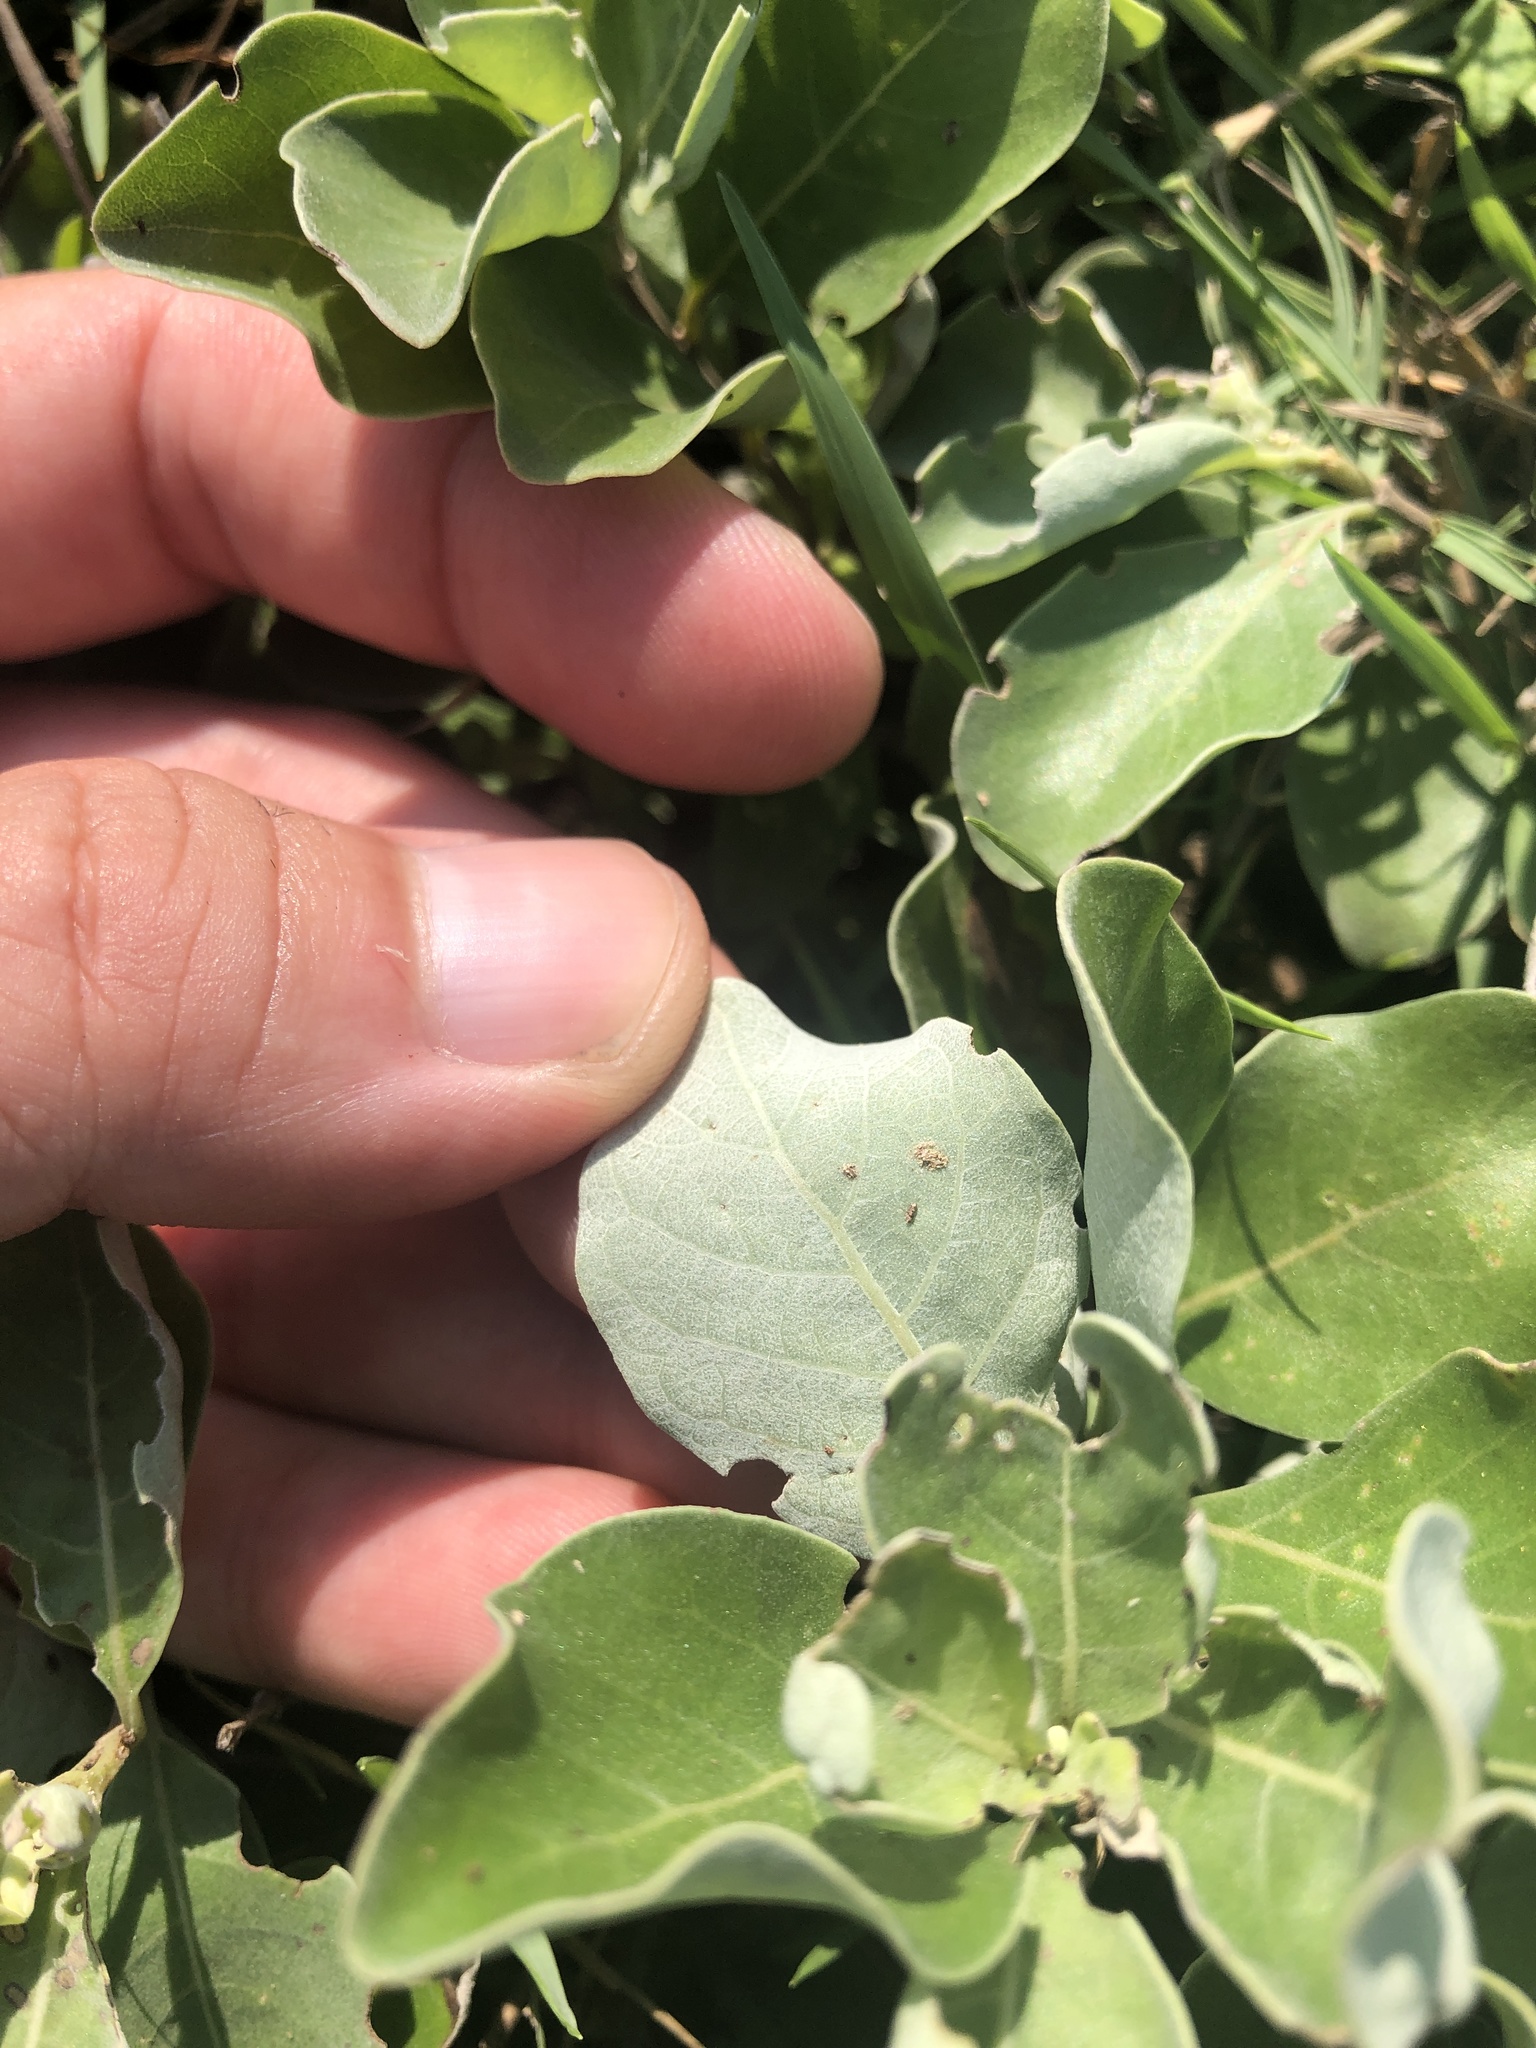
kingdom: Plantae
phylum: Tracheophyta
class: Magnoliopsida
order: Lamiales
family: Lamiaceae
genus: Vitex
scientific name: Vitex rotundifolia
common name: Beach vitex
